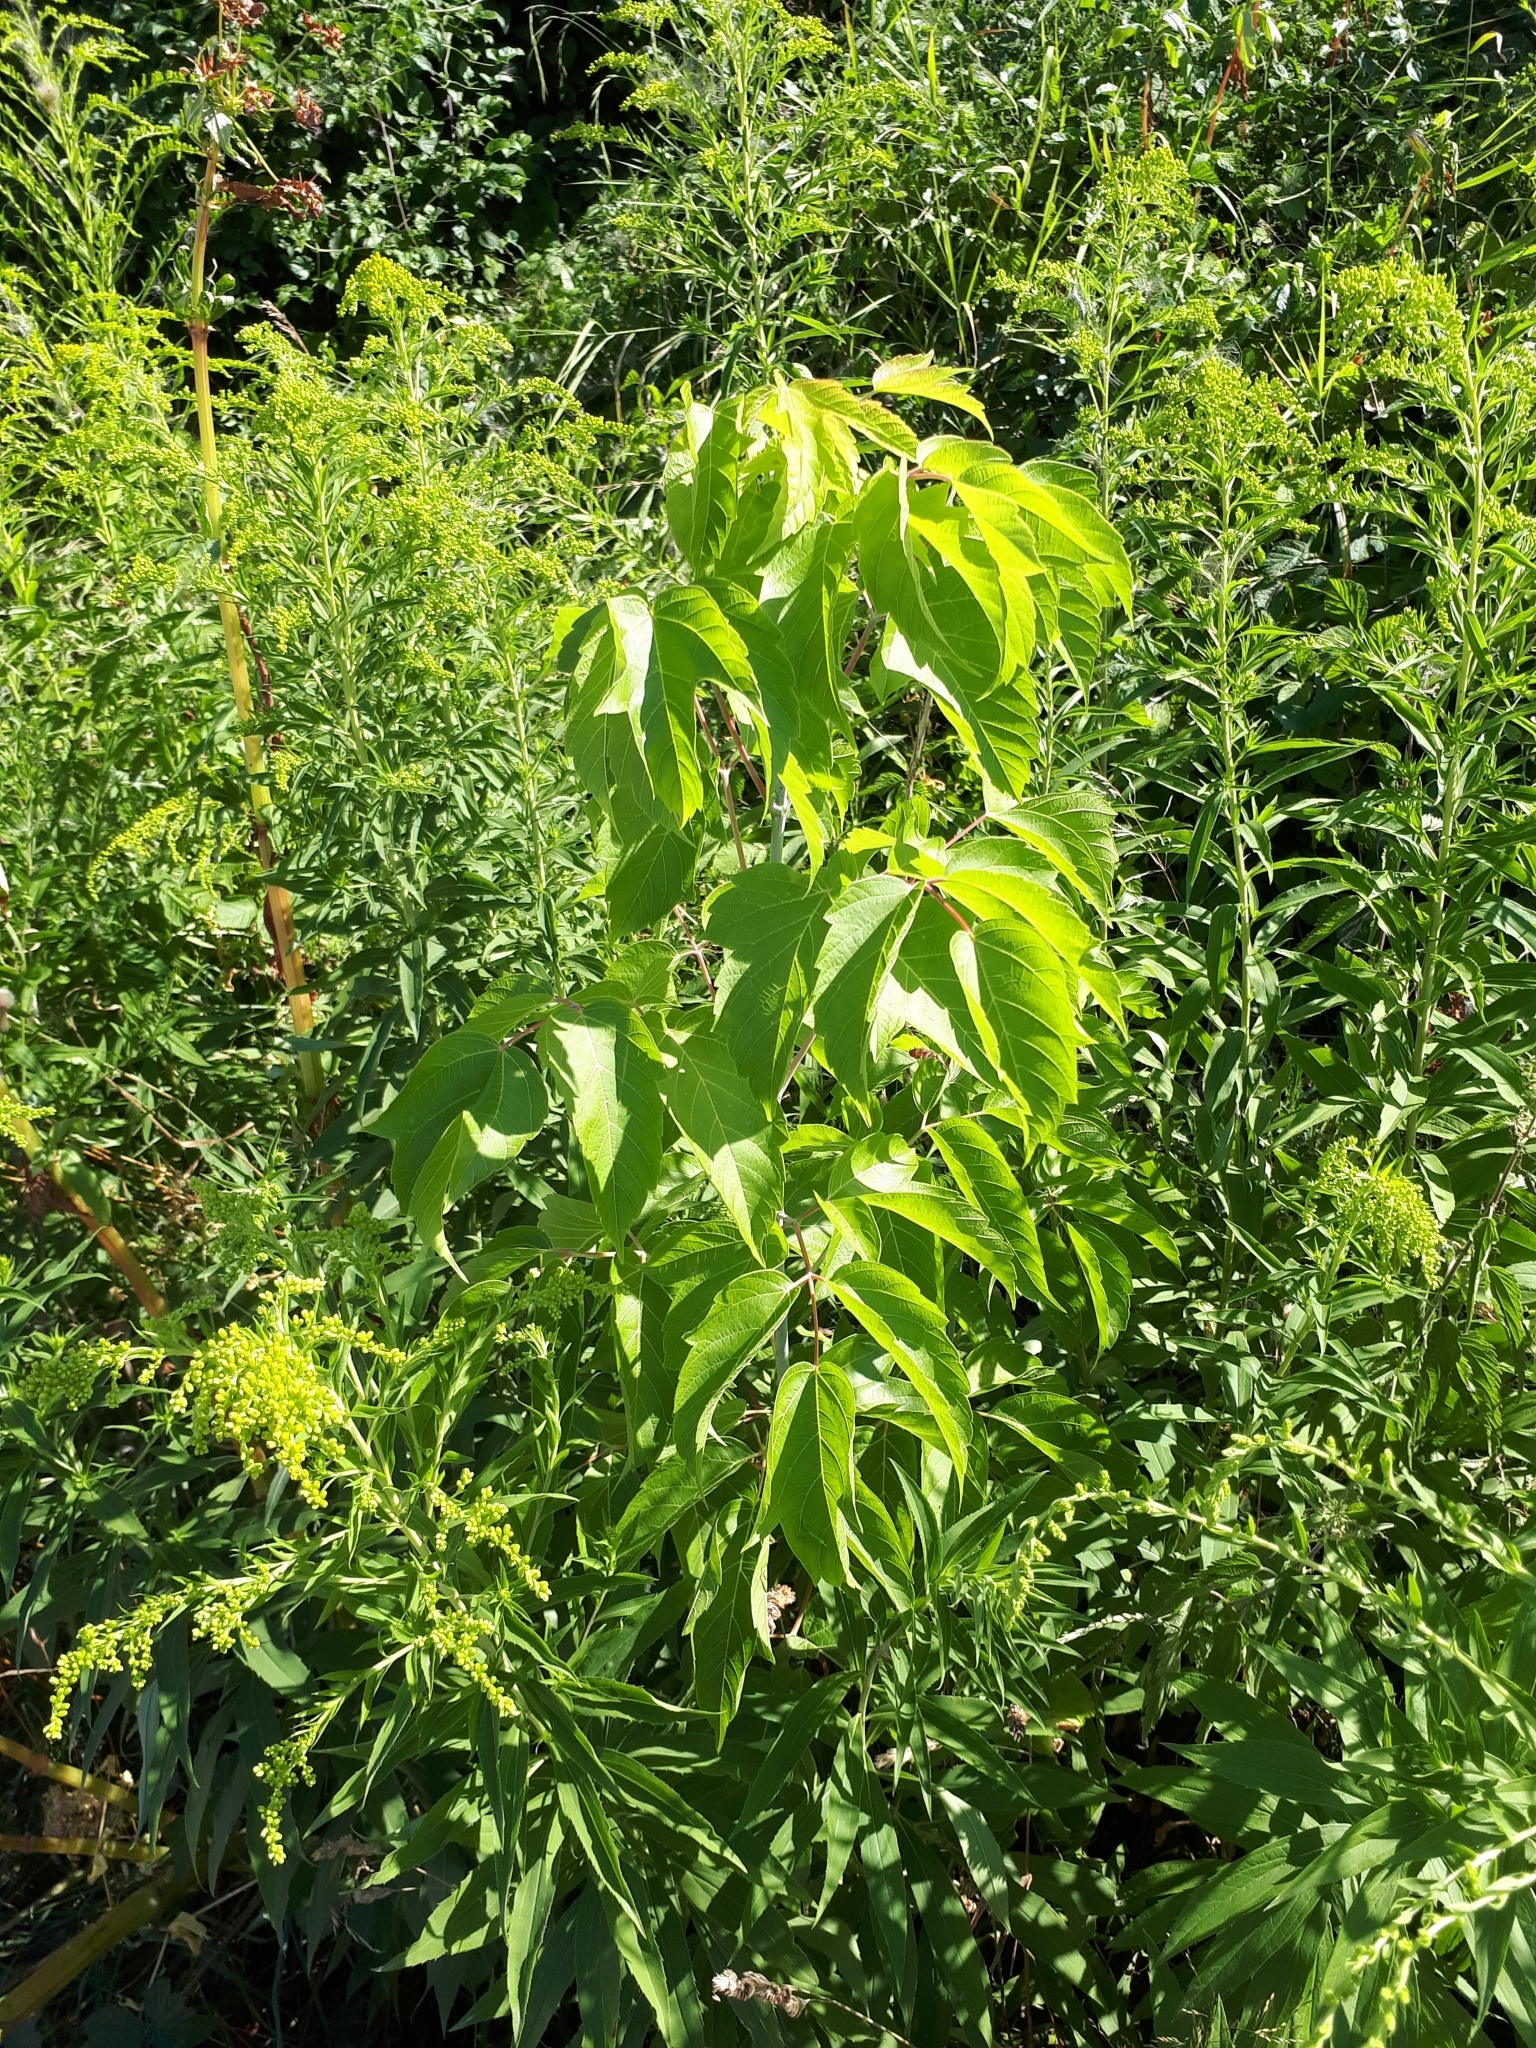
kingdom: Plantae
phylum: Tracheophyta
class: Magnoliopsida
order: Sapindales
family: Sapindaceae
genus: Acer
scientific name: Acer negundo
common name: Ashleaf maple
